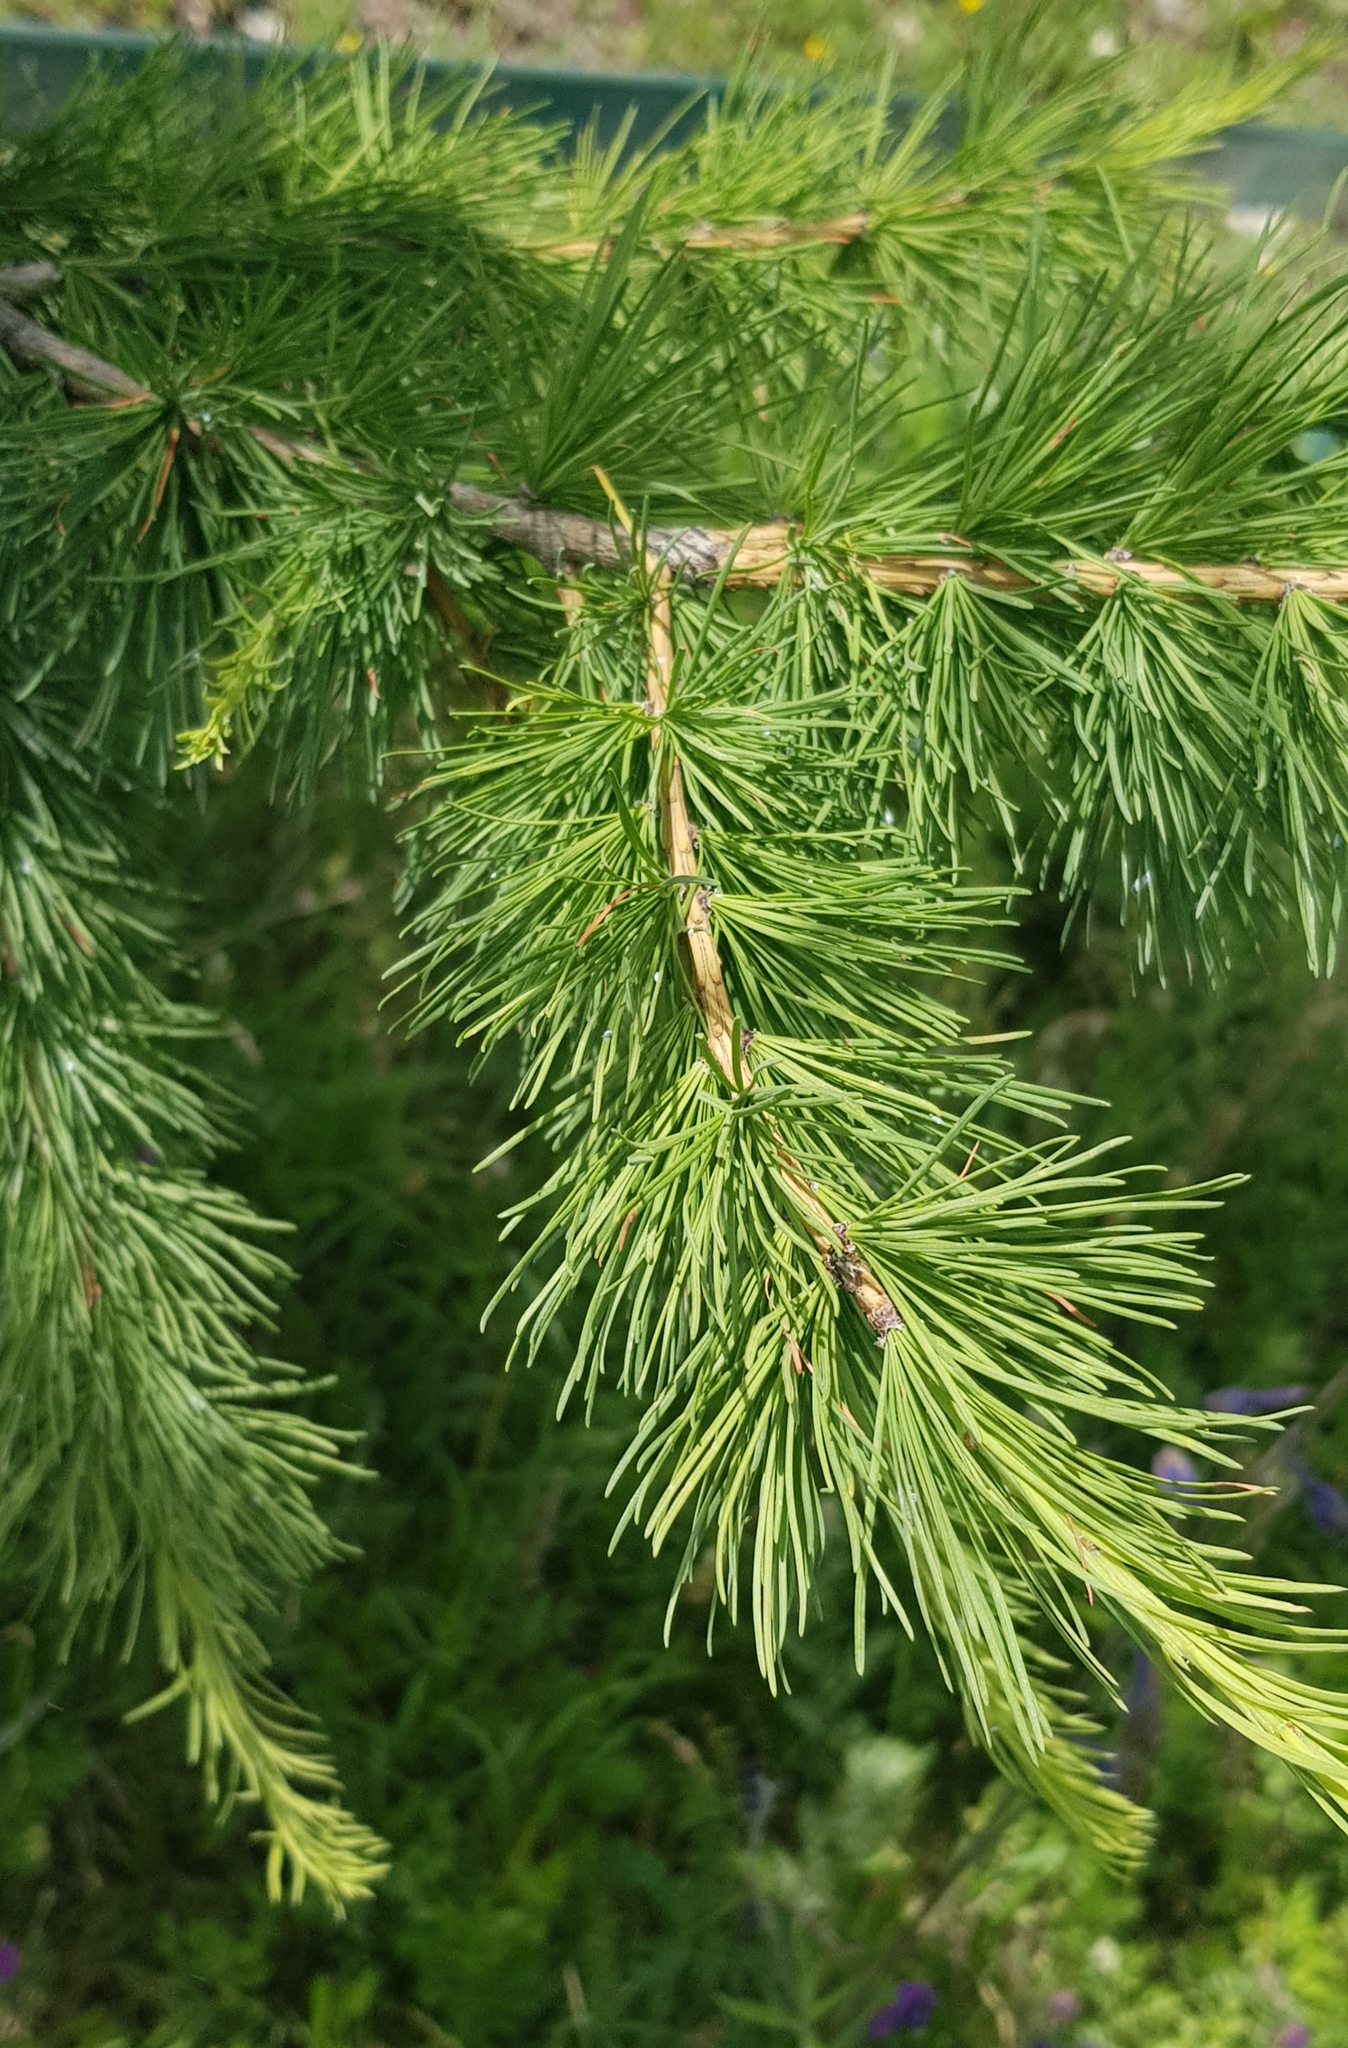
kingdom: Plantae
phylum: Tracheophyta
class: Pinopsida
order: Pinales
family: Pinaceae
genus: Larix
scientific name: Larix sibirica
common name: Siberian larch
